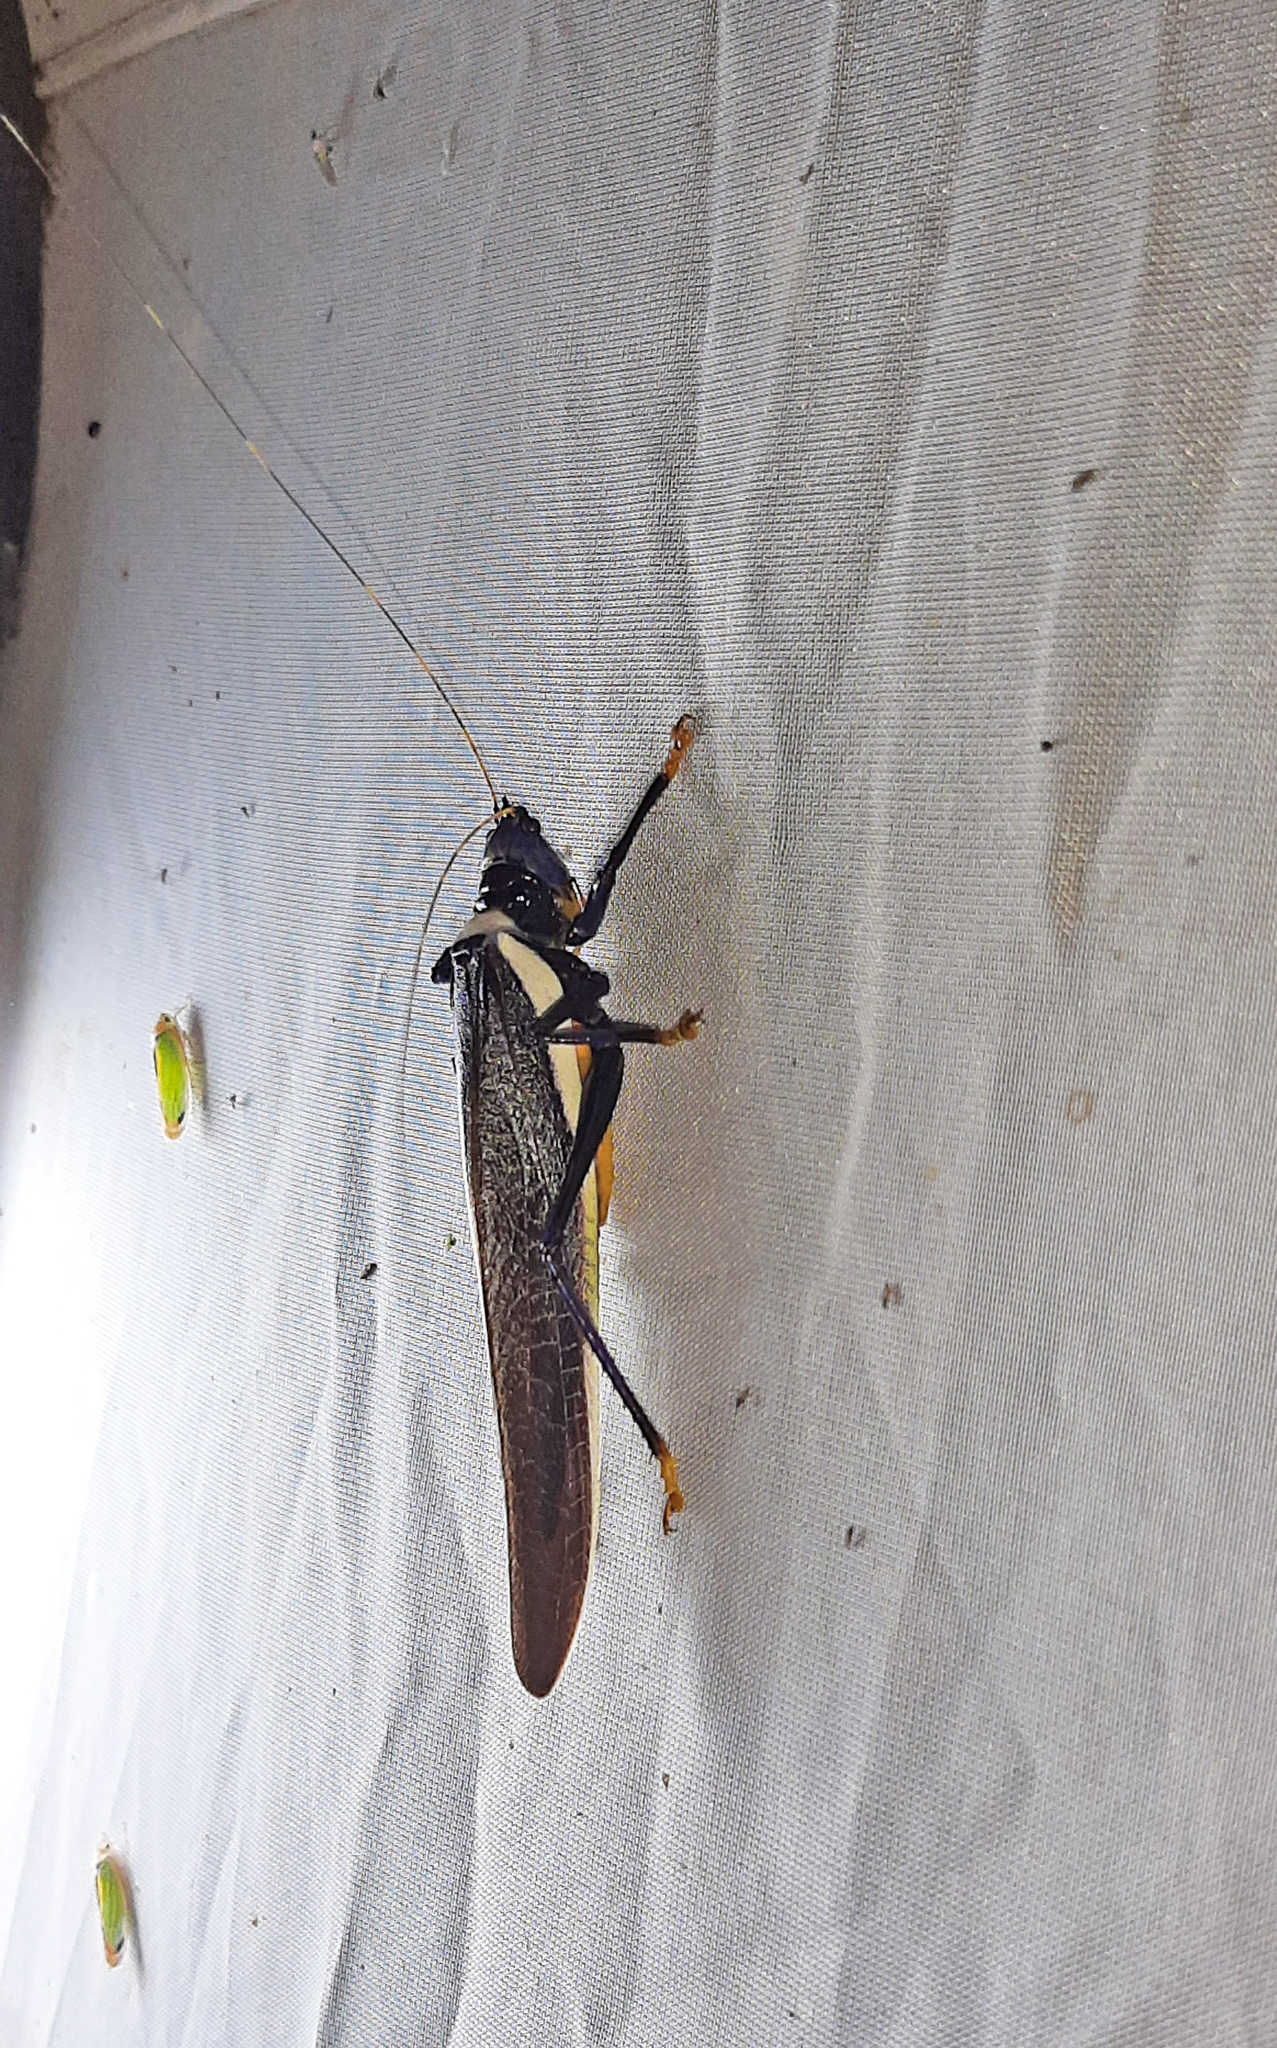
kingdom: Animalia
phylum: Arthropoda
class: Insecta
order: Orthoptera
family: Tettigoniidae
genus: Moncheca
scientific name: Moncheca elegans
